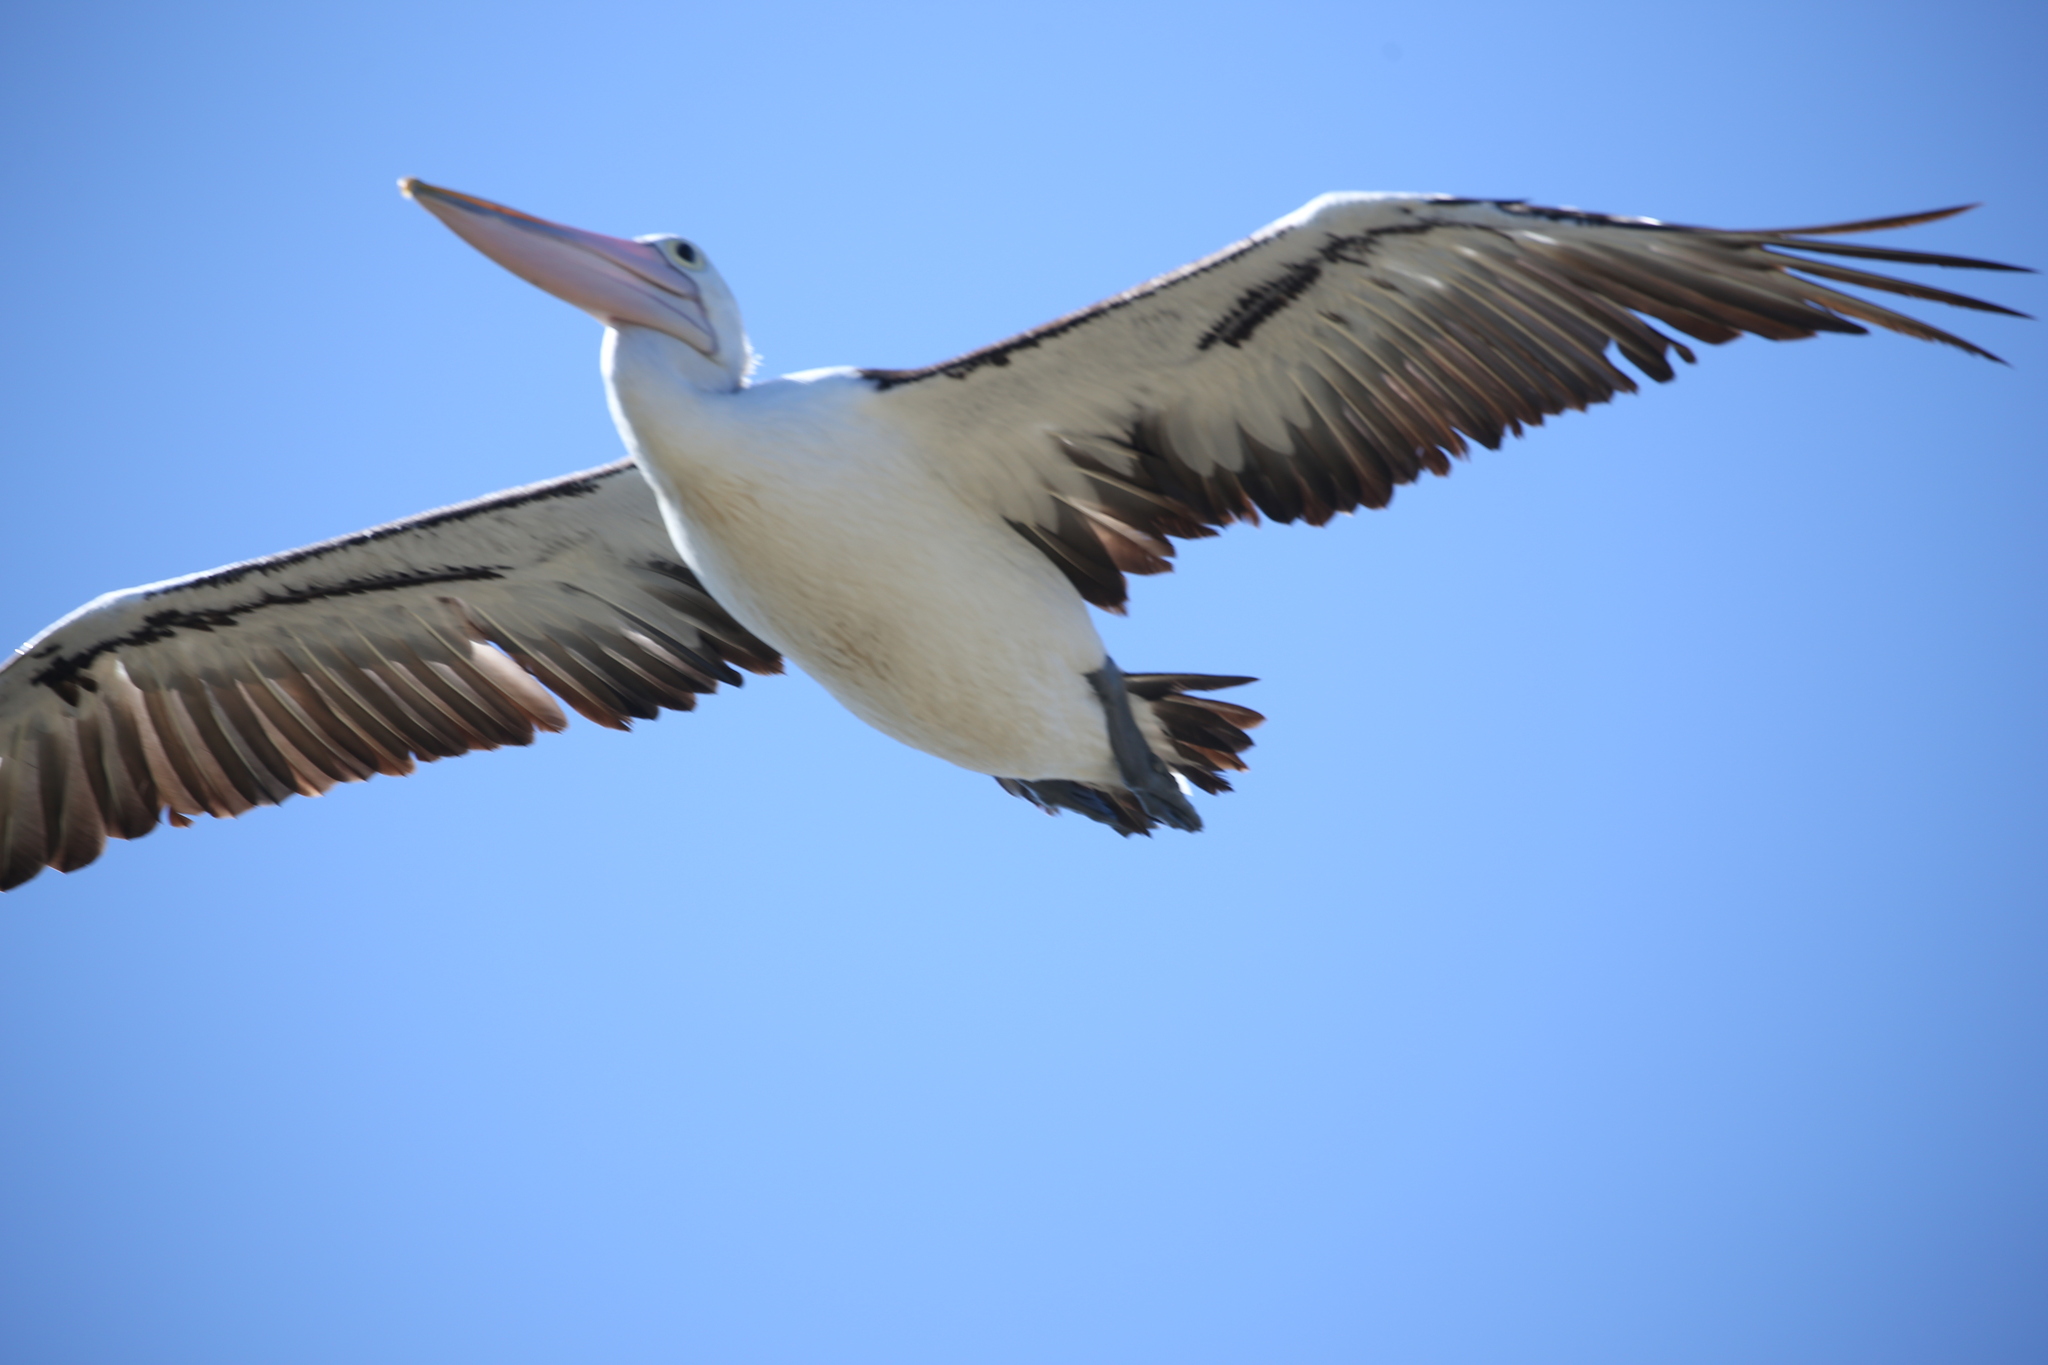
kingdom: Animalia
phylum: Chordata
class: Aves
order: Pelecaniformes
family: Pelecanidae
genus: Pelecanus
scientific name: Pelecanus conspicillatus
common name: Australian pelican
